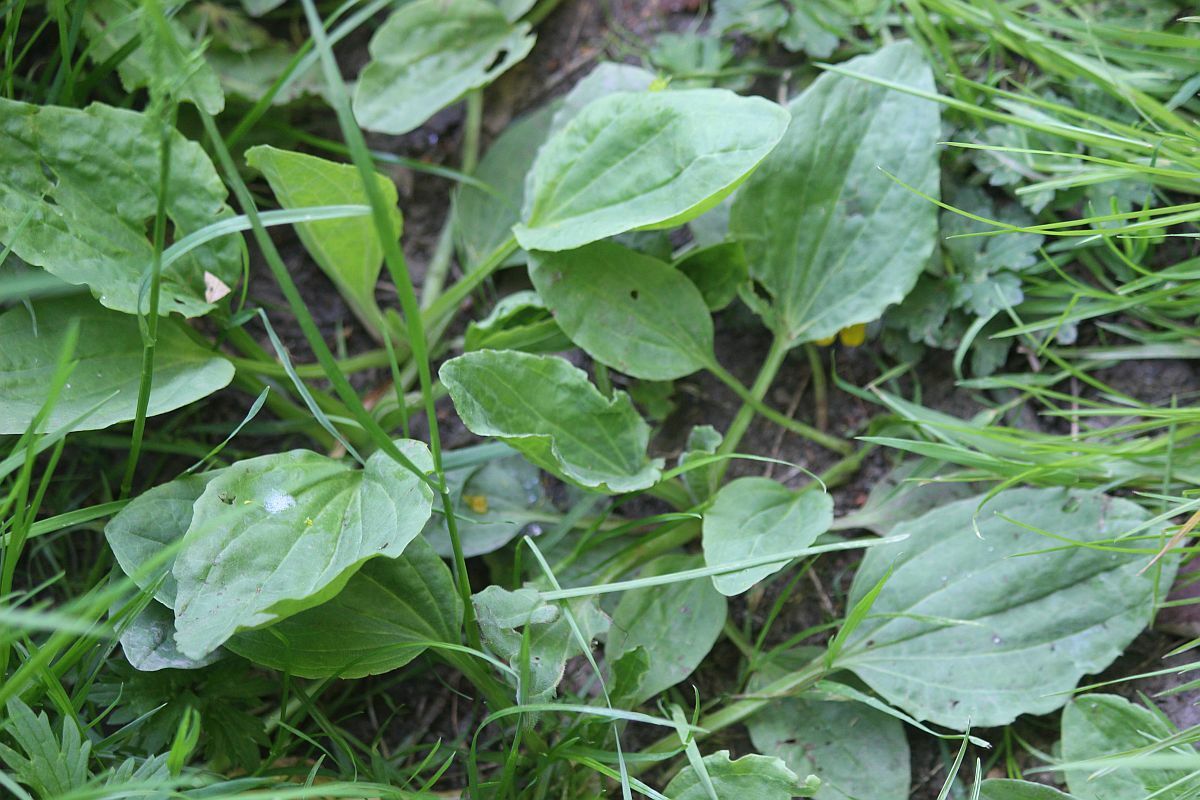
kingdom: Plantae
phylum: Tracheophyta
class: Magnoliopsida
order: Lamiales
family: Plantaginaceae
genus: Plantago
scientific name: Plantago major
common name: Common plantain
